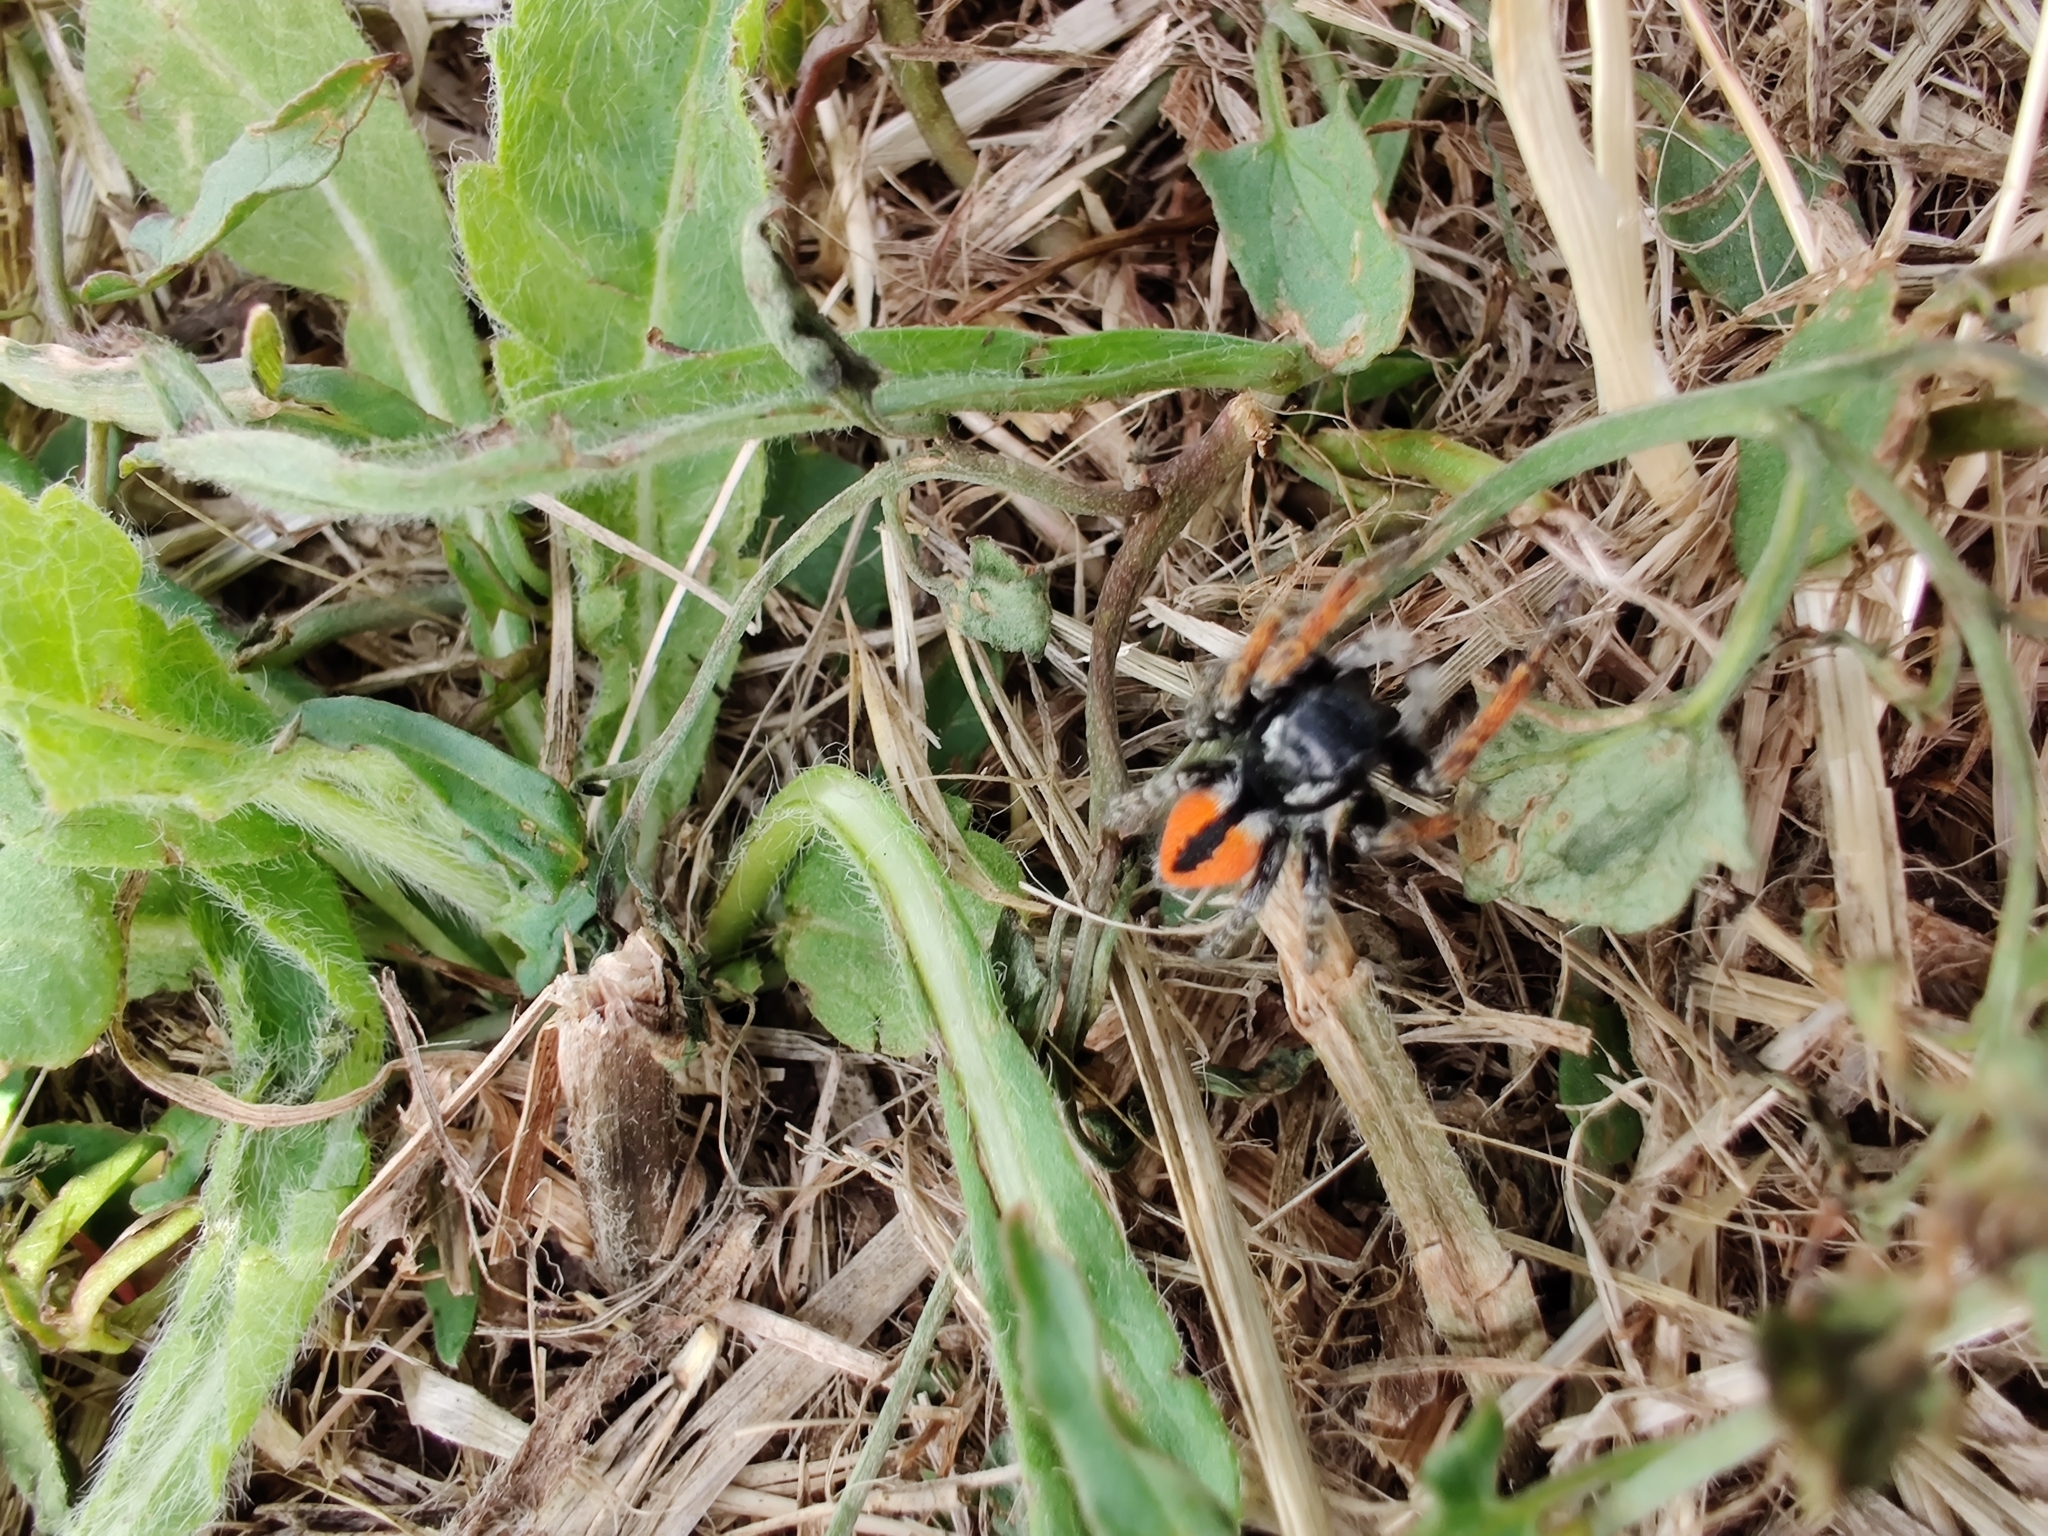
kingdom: Animalia
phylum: Arthropoda
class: Arachnida
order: Araneae
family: Salticidae
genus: Philaeus
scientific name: Philaeus chrysops
